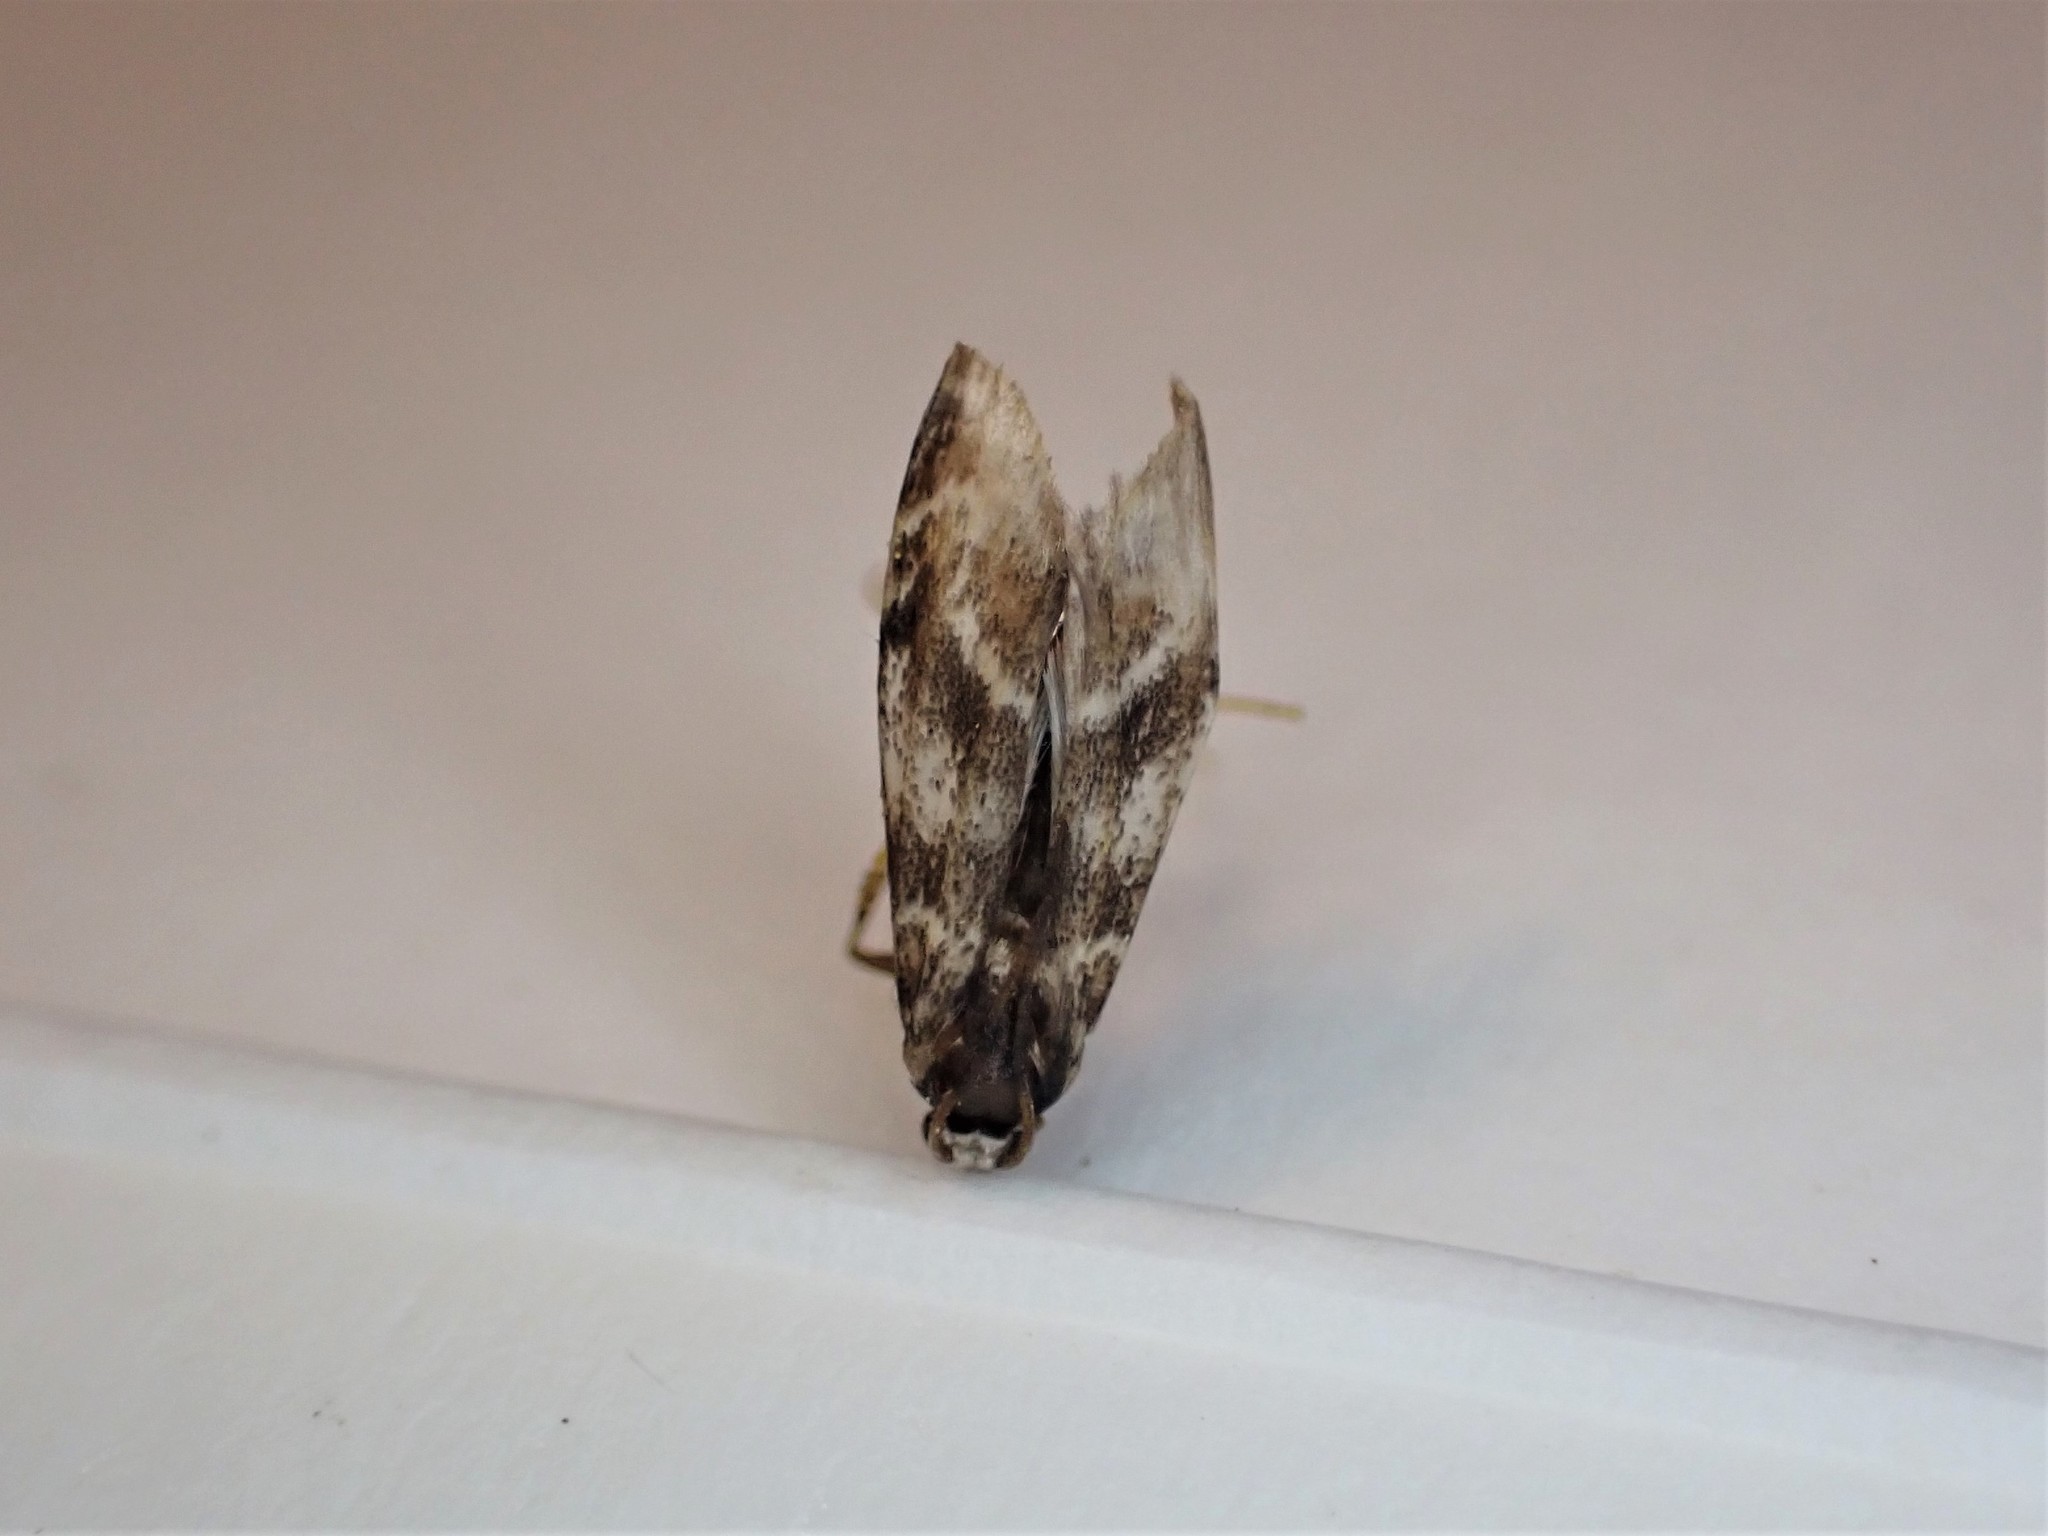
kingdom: Animalia
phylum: Arthropoda
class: Insecta
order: Lepidoptera
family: Crambidae
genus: Hygraula
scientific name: Hygraula nitens
